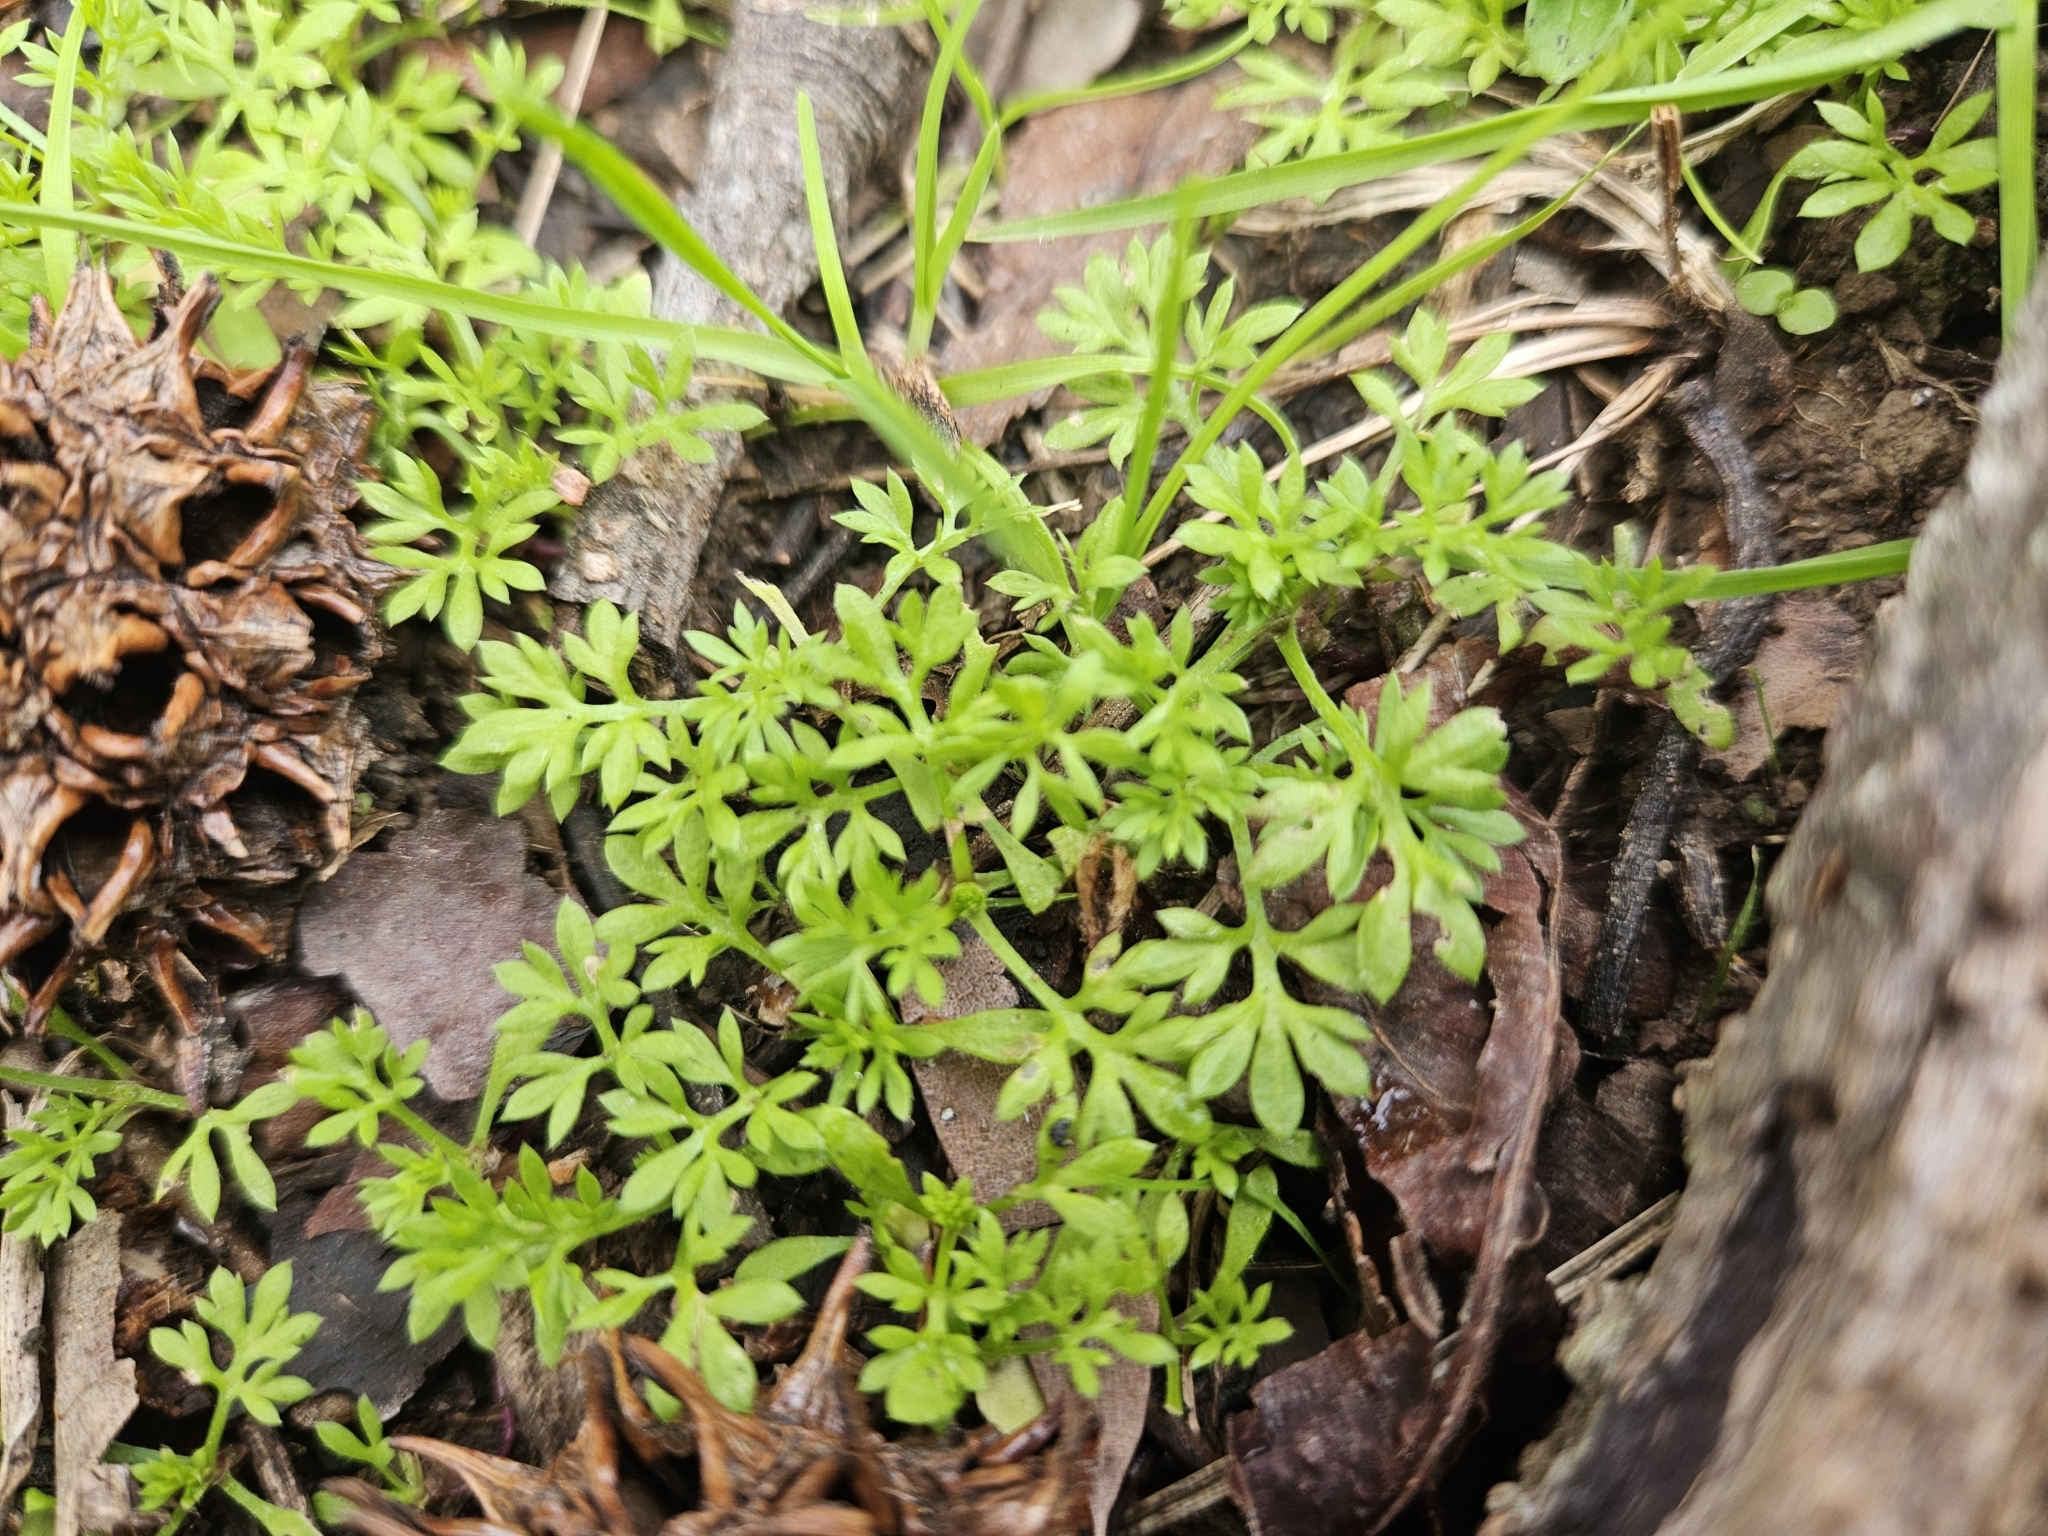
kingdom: Plantae
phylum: Tracheophyta
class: Magnoliopsida
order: Asterales
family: Asteraceae
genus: Soliva
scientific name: Soliva sessilis
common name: Field burrweed
